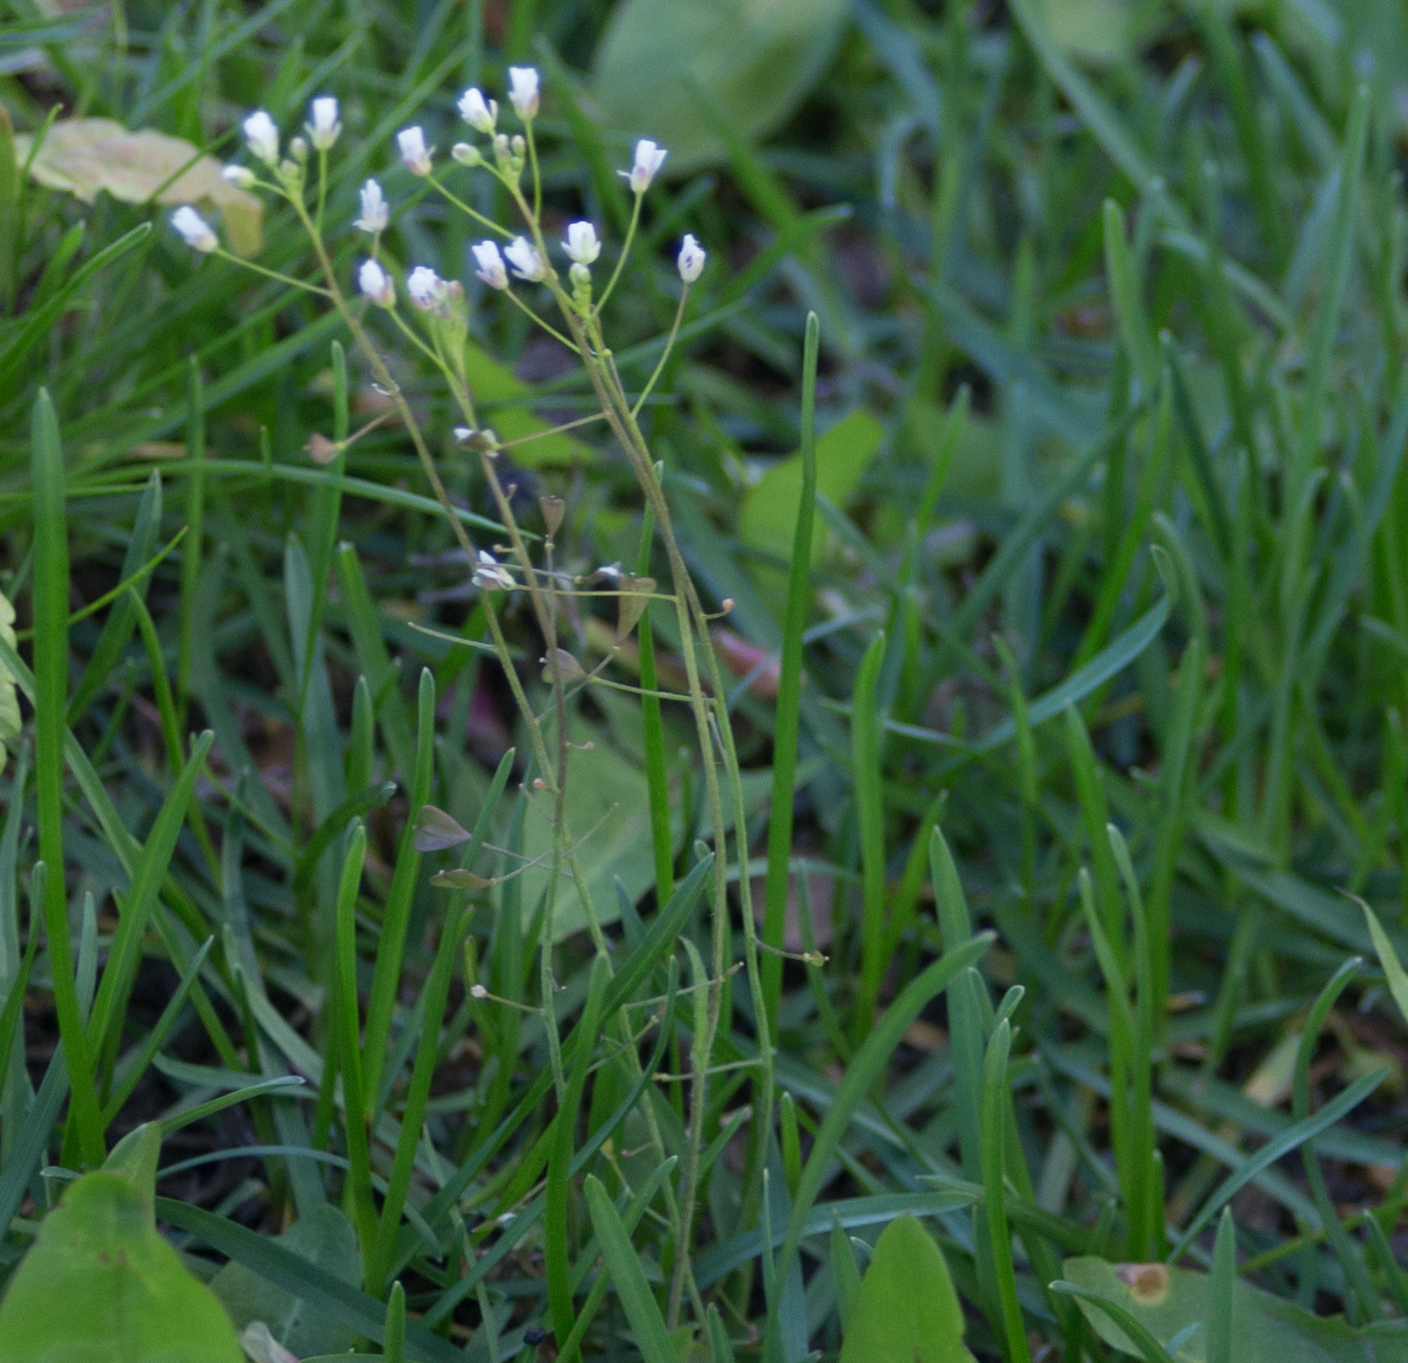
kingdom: Plantae
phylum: Tracheophyta
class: Magnoliopsida
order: Brassicales
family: Brassicaceae
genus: Capsella
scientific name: Capsella bursa-pastoris
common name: Shepherd's purse
